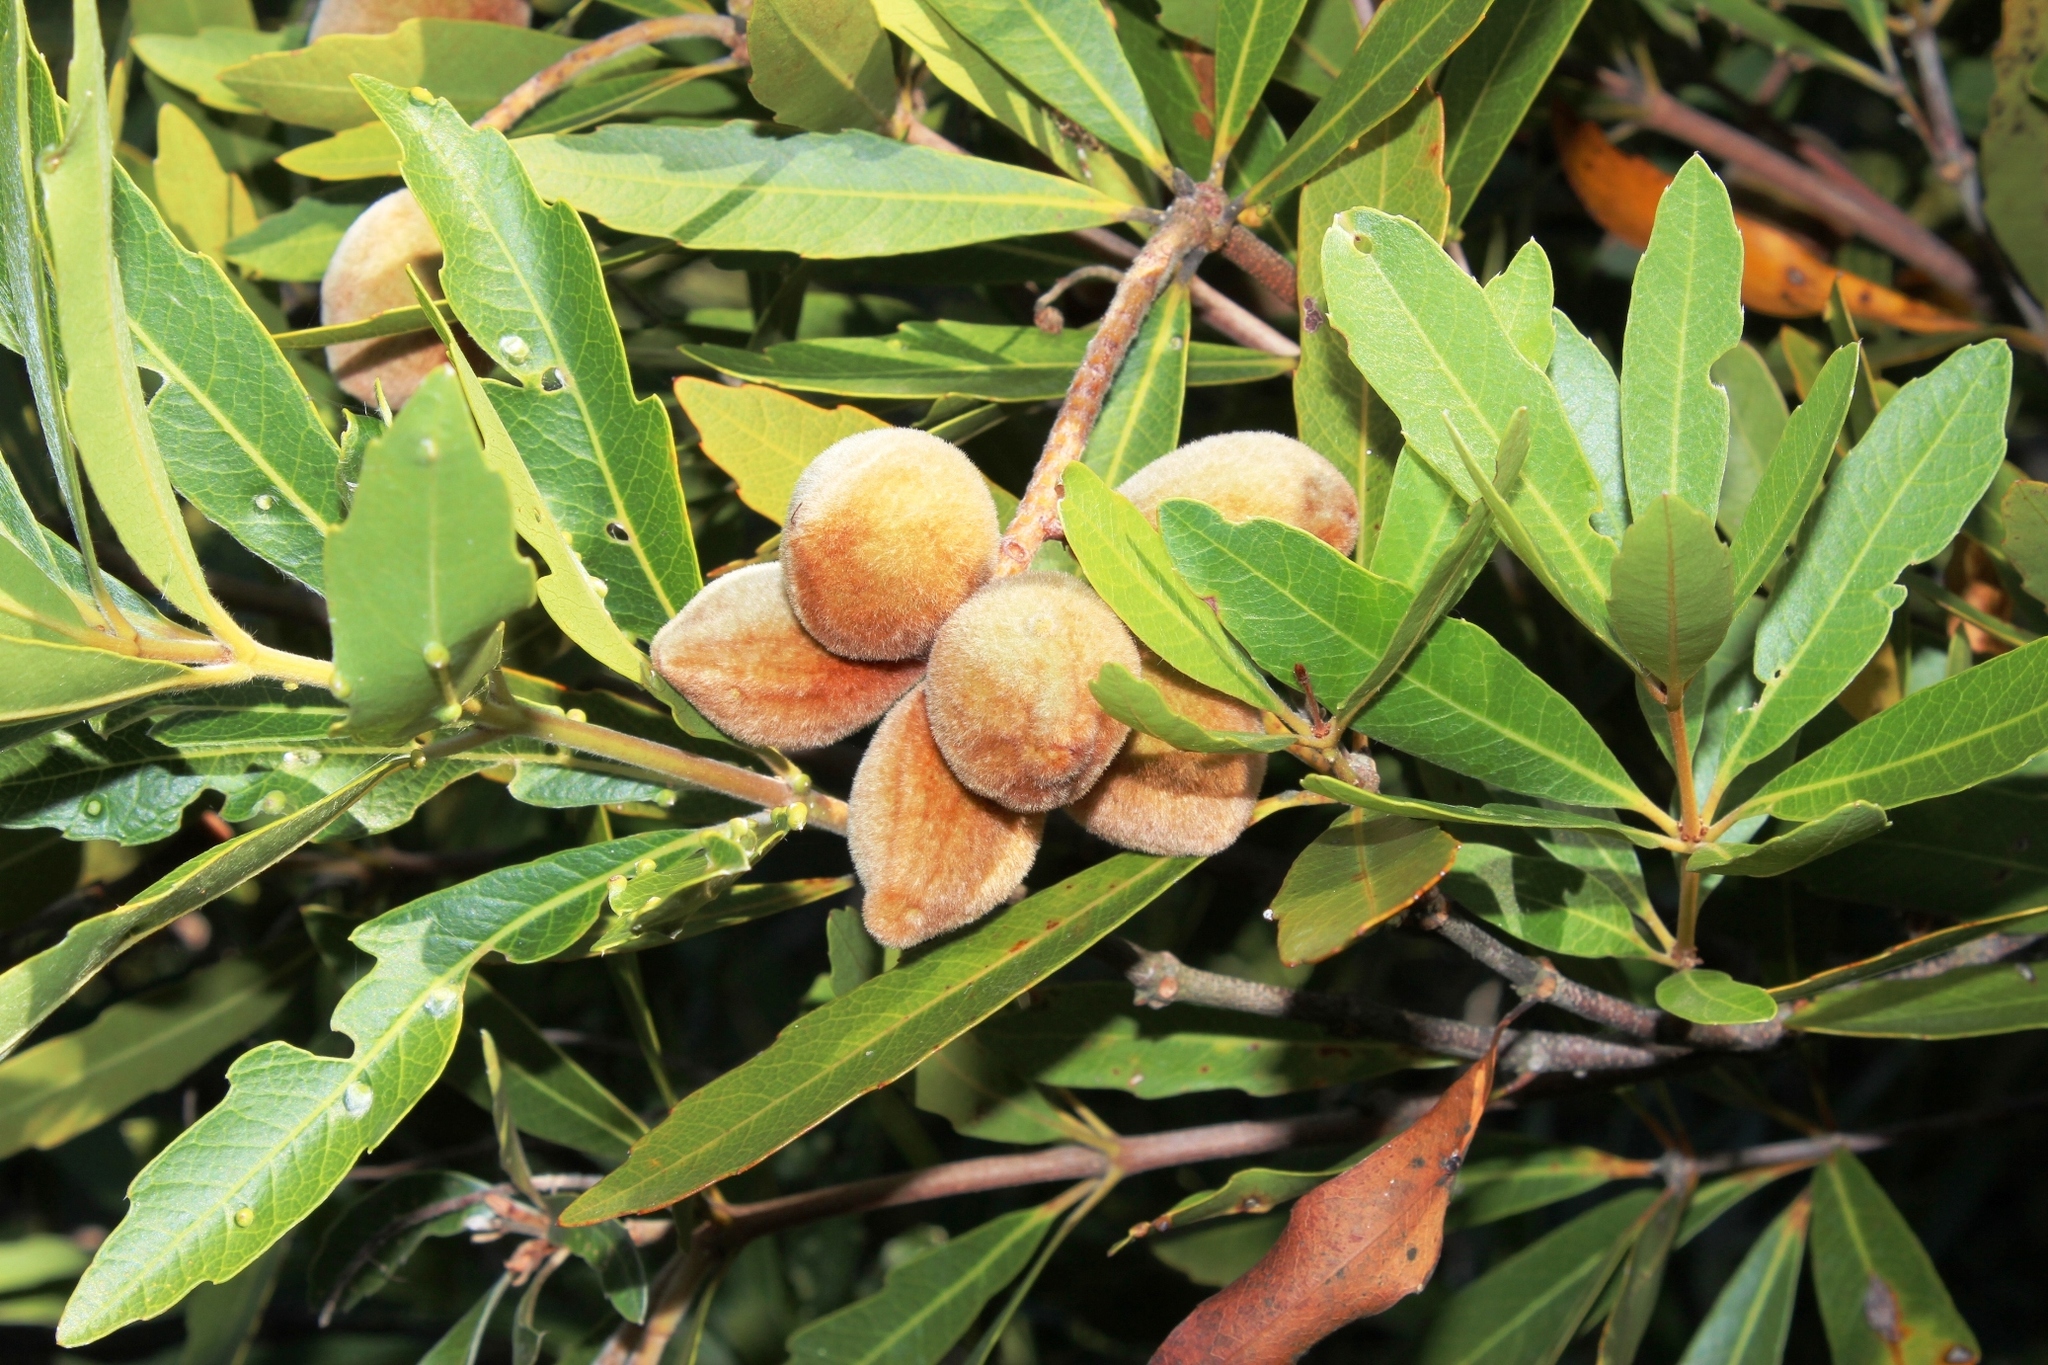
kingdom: Plantae
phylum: Tracheophyta
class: Magnoliopsida
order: Proteales
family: Proteaceae
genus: Brabejum
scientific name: Brabejum stellatifolium
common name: Wild almond
